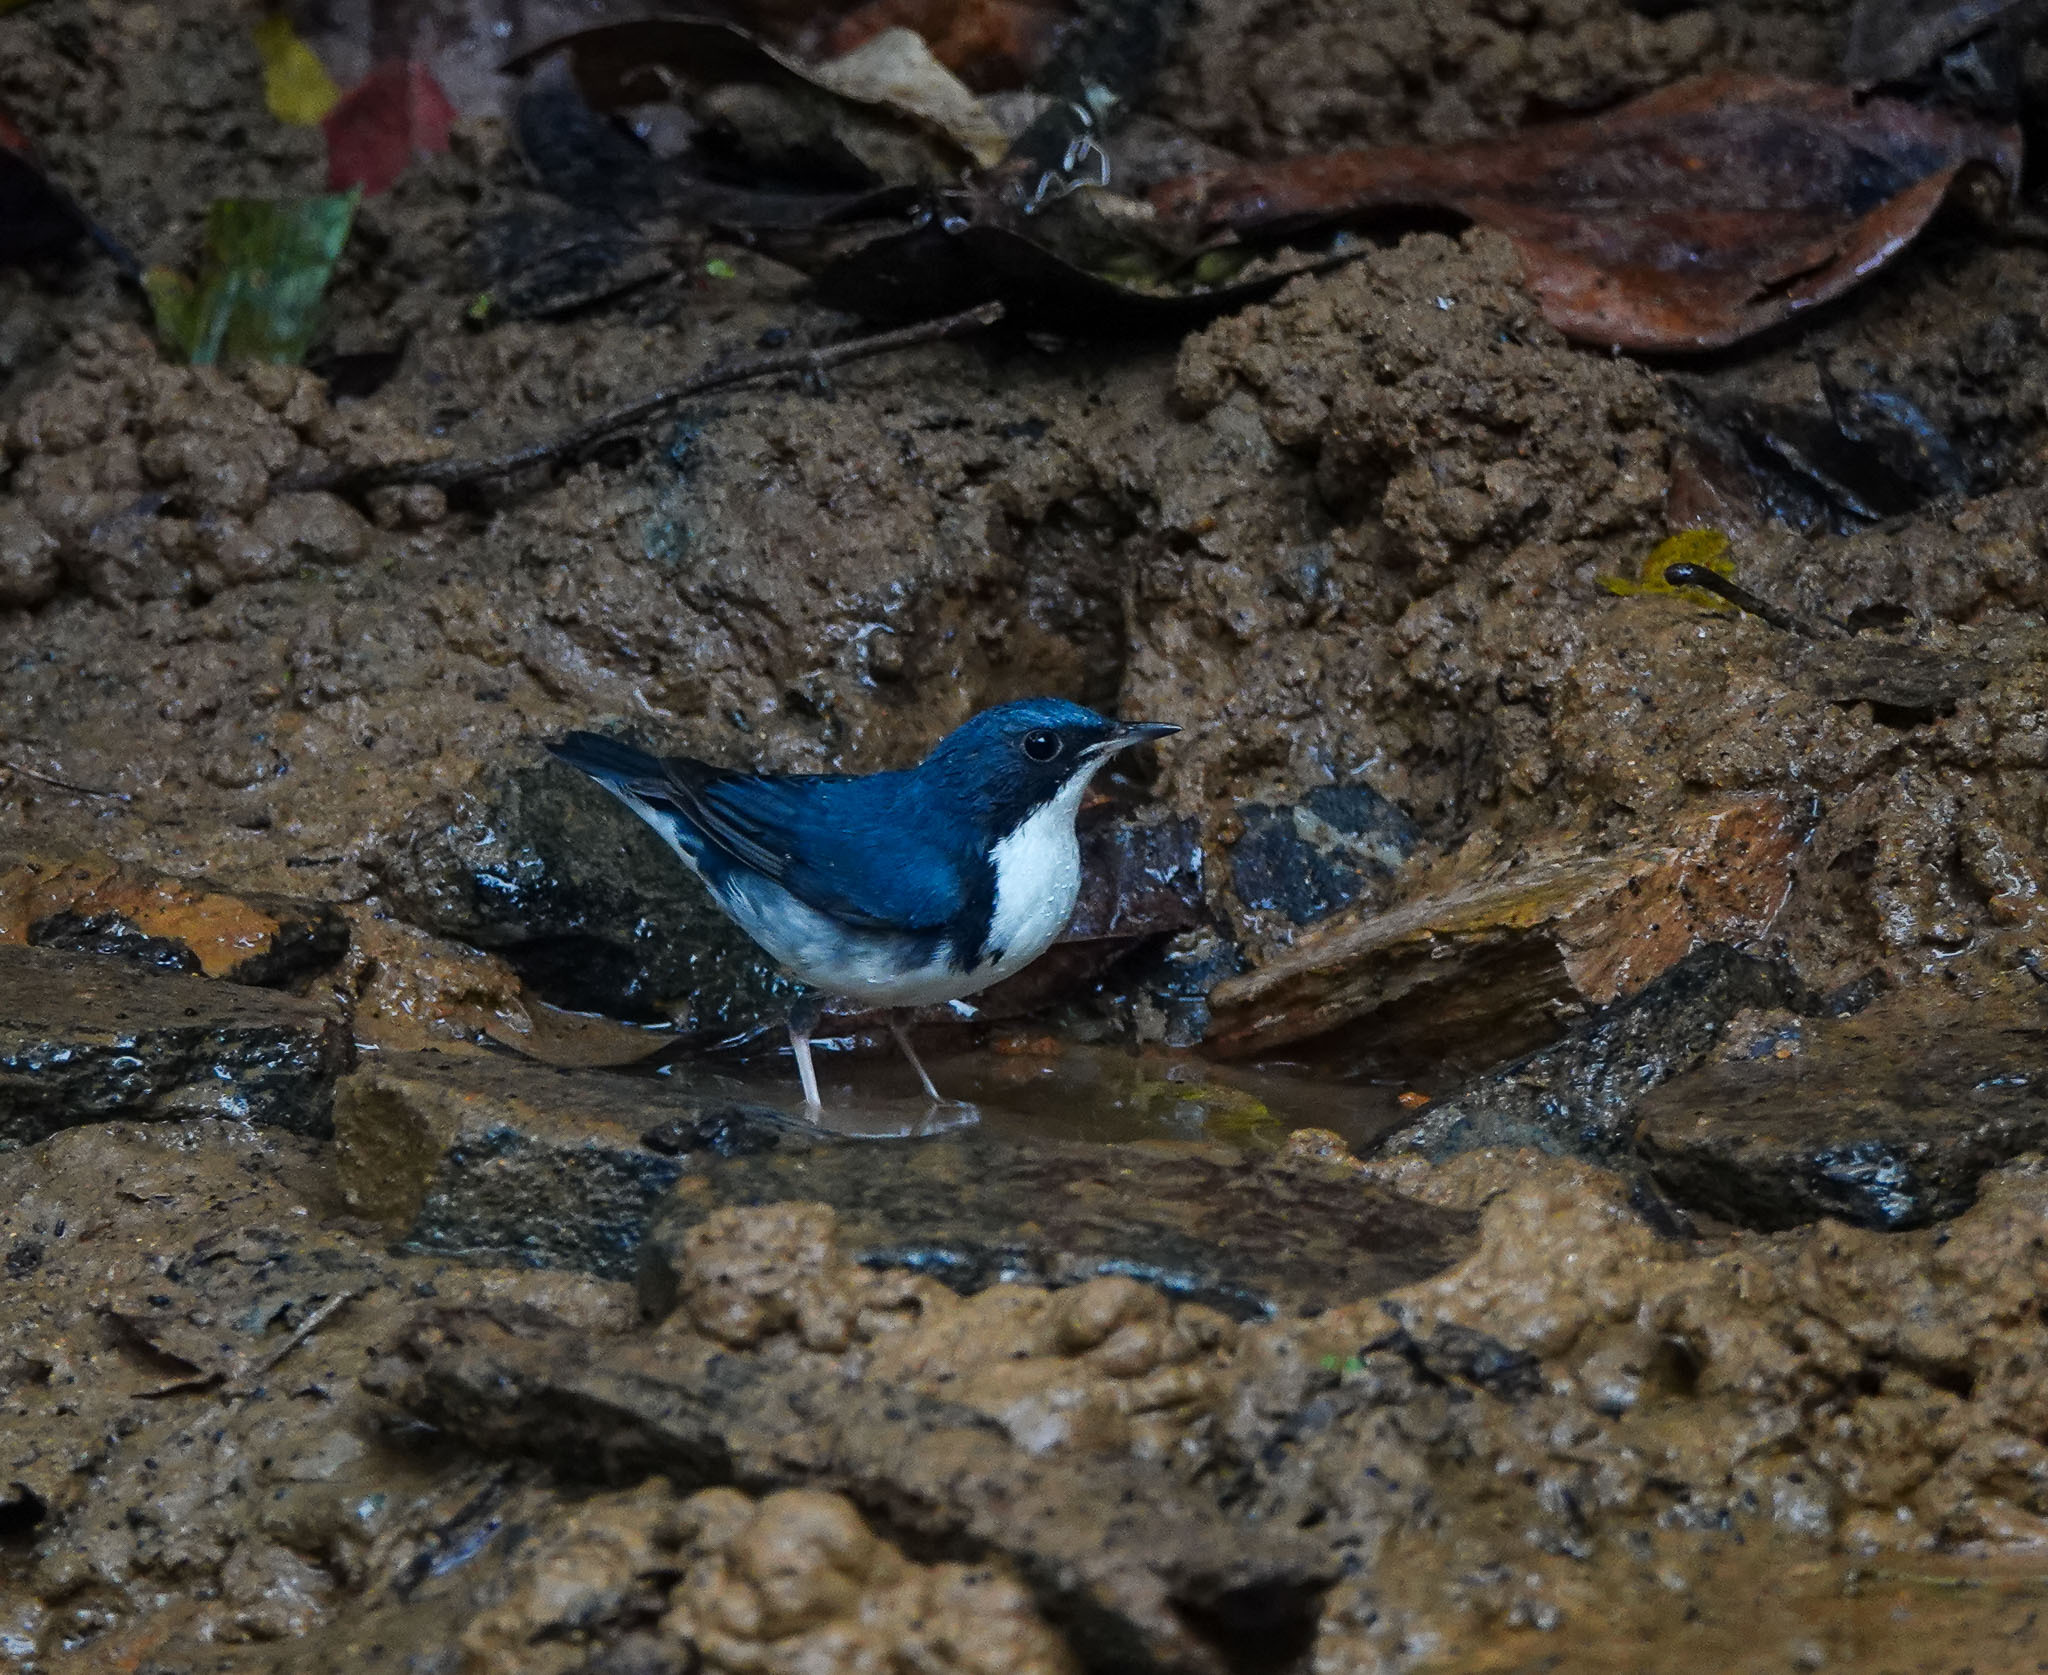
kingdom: Animalia
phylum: Chordata
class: Aves
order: Passeriformes
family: Muscicapidae
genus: Luscinia
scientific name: Luscinia cyane
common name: Siberian blue robin
